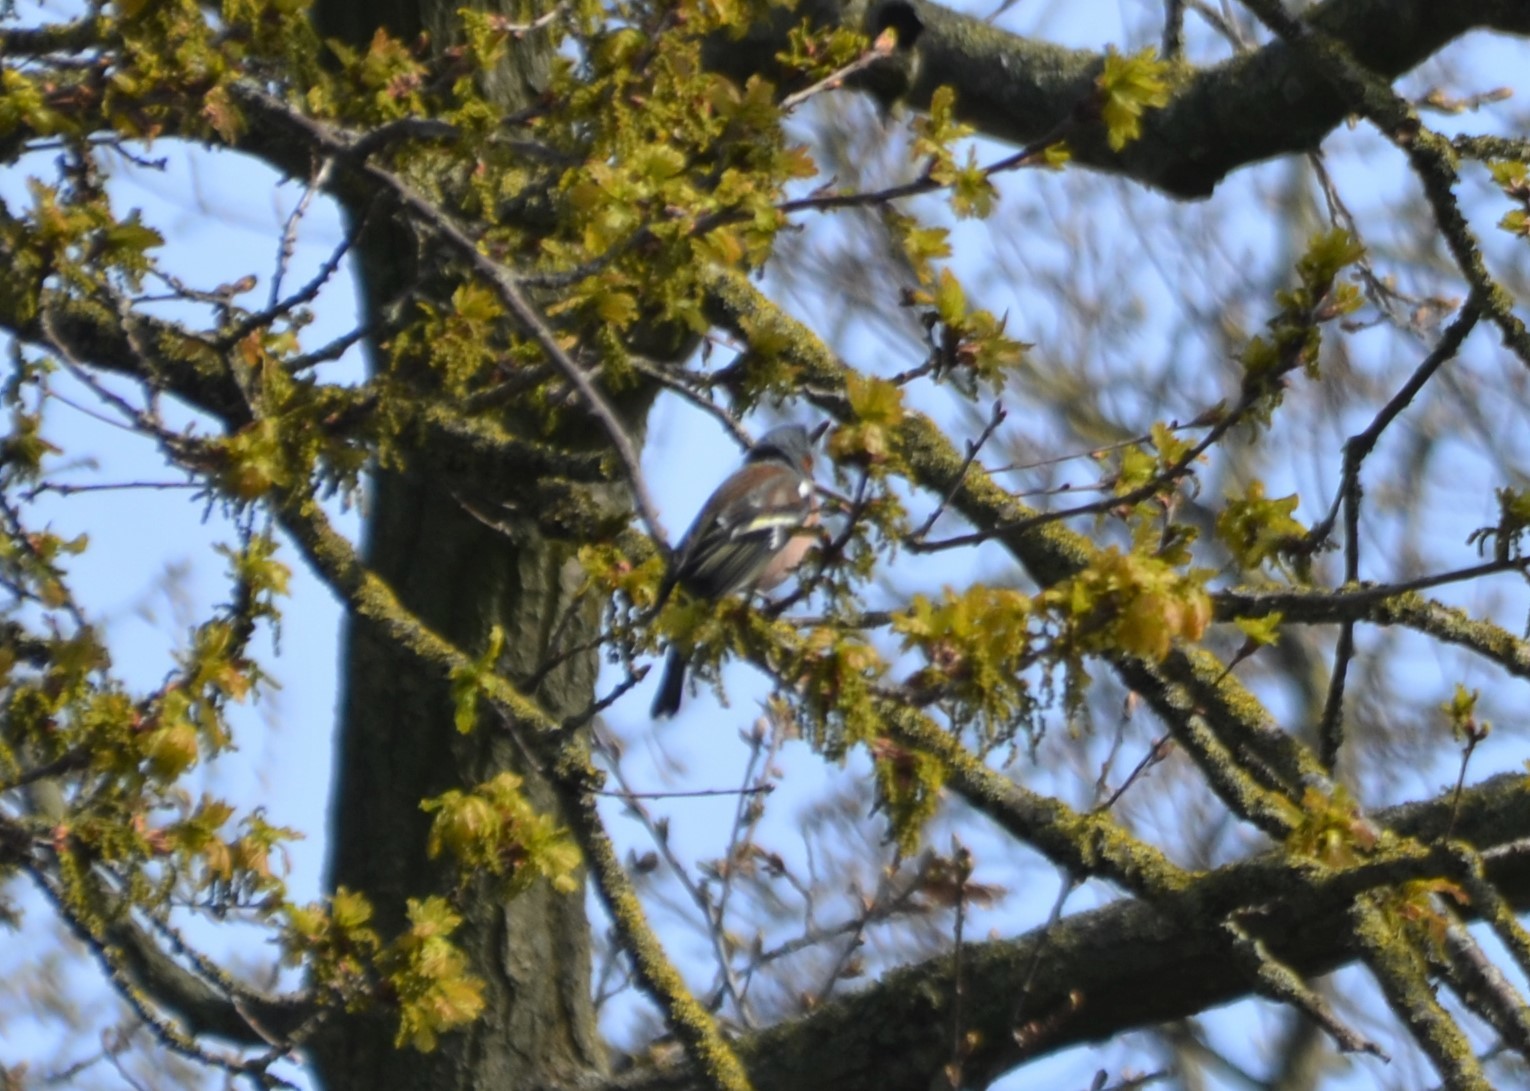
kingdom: Animalia
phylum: Chordata
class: Aves
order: Passeriformes
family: Fringillidae
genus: Fringilla
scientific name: Fringilla coelebs
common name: Common chaffinch
